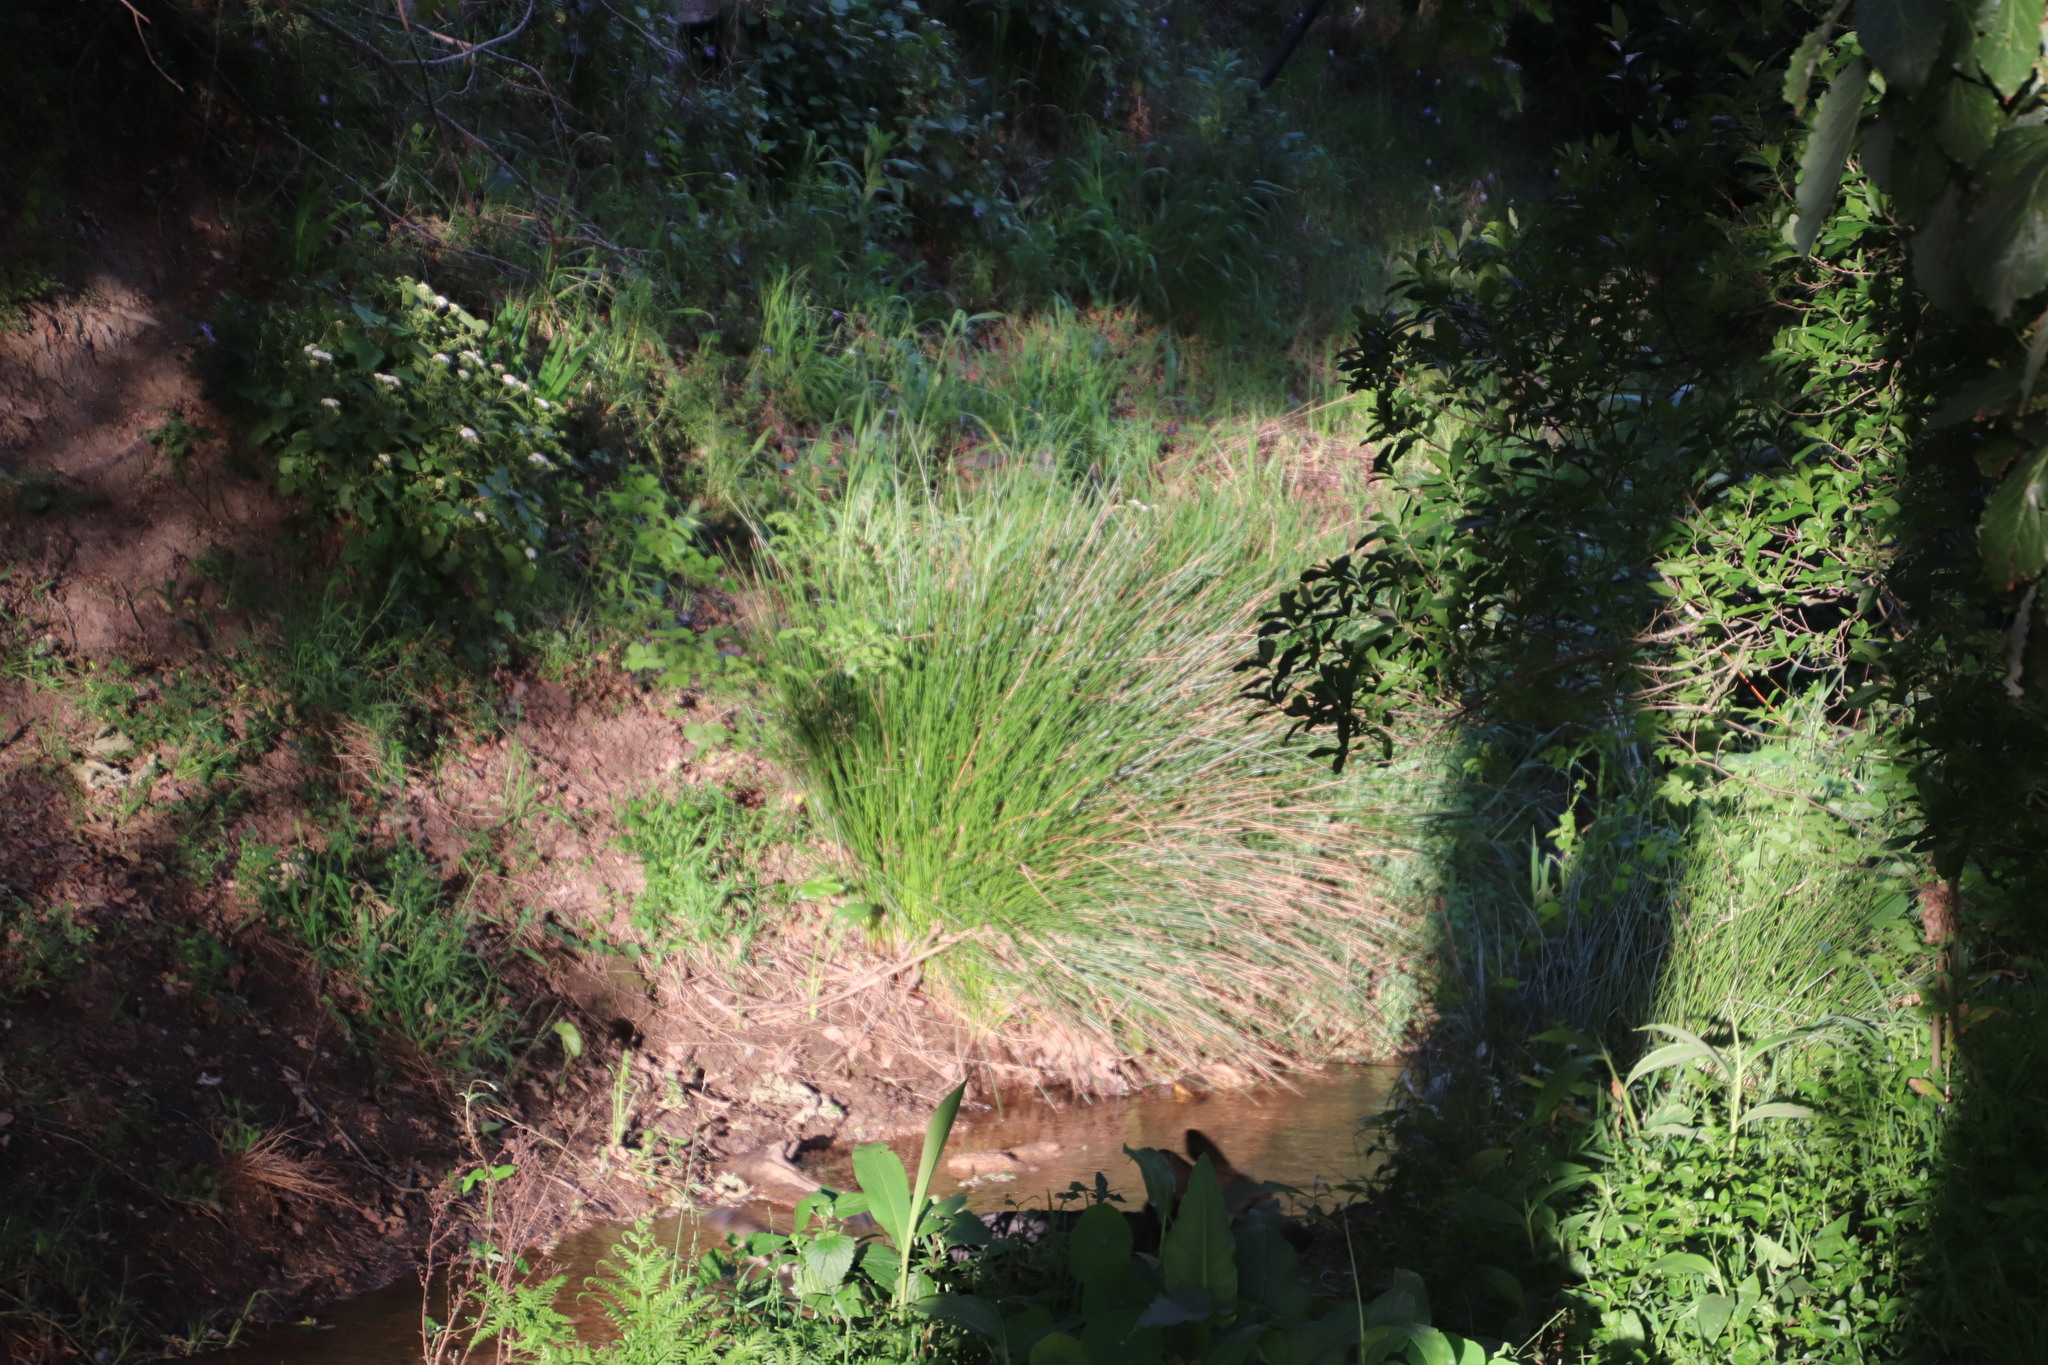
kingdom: Plantae
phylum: Tracheophyta
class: Liliopsida
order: Poales
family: Juncaceae
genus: Juncus
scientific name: Juncus effusus
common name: Soft rush
